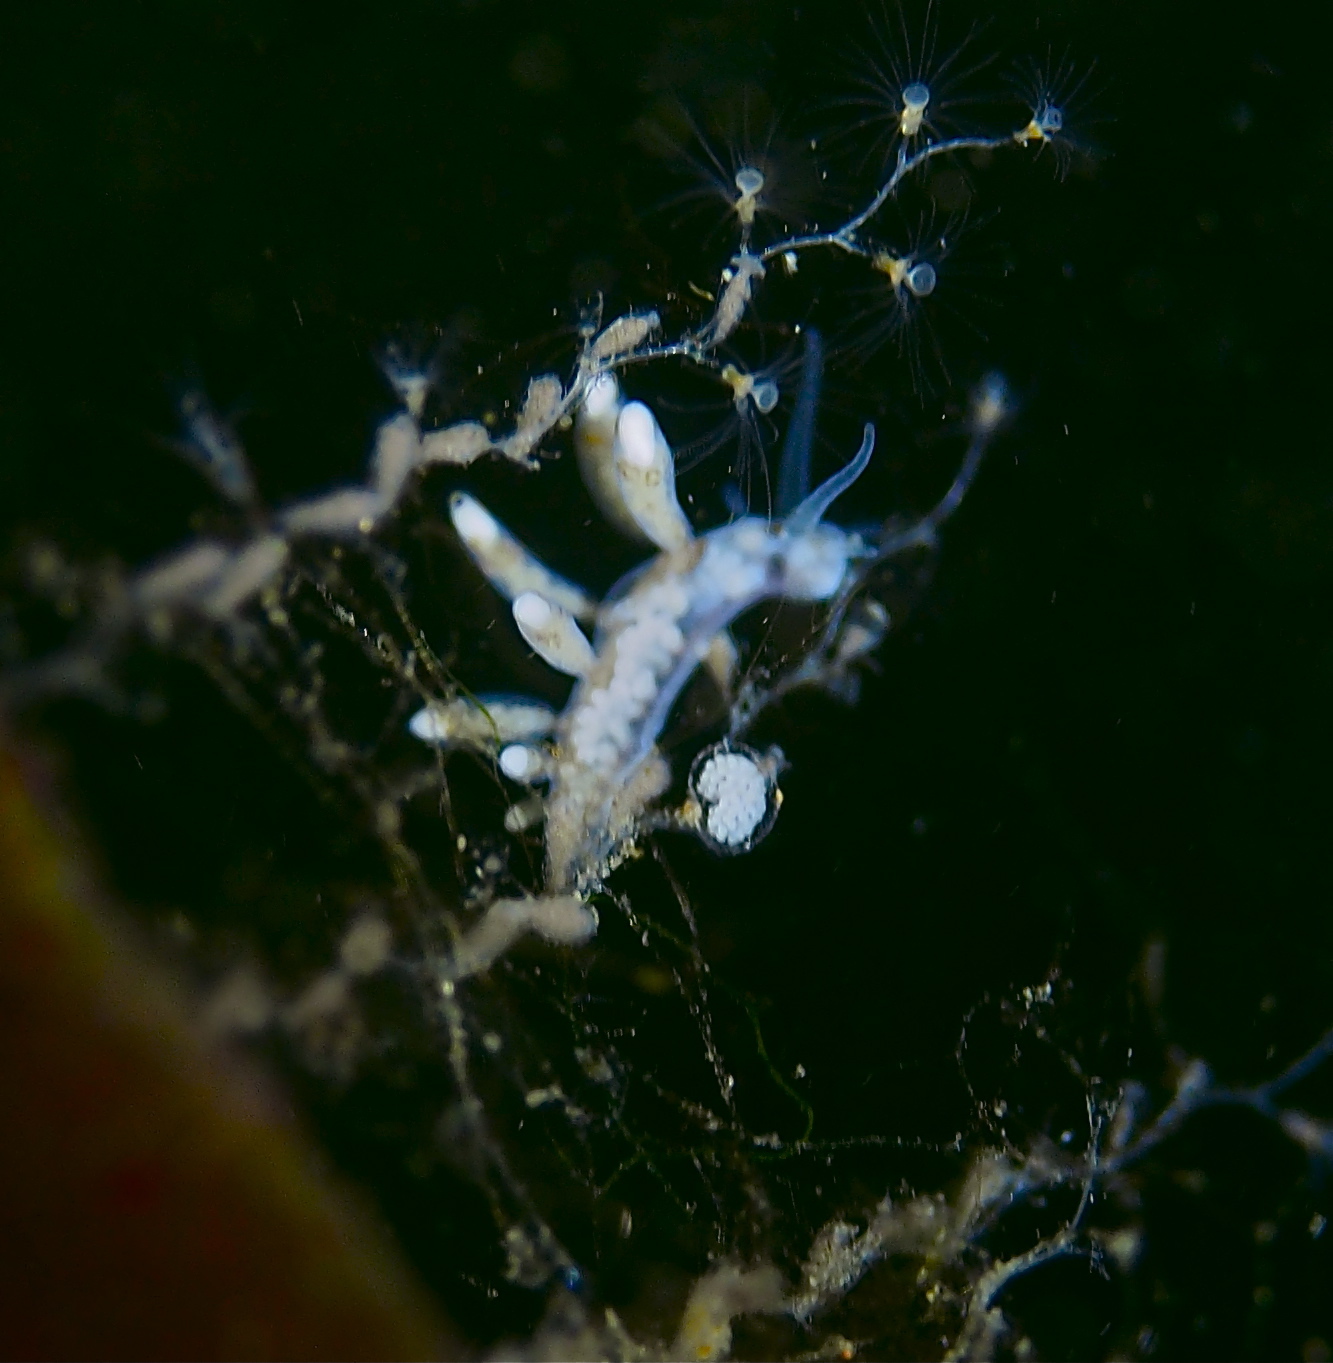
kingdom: Animalia
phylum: Mollusca
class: Gastropoda
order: Nudibranchia
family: Tergipedidae
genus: Tergipes
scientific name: Tergipes tergipes
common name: Johnston's balloon eolis
